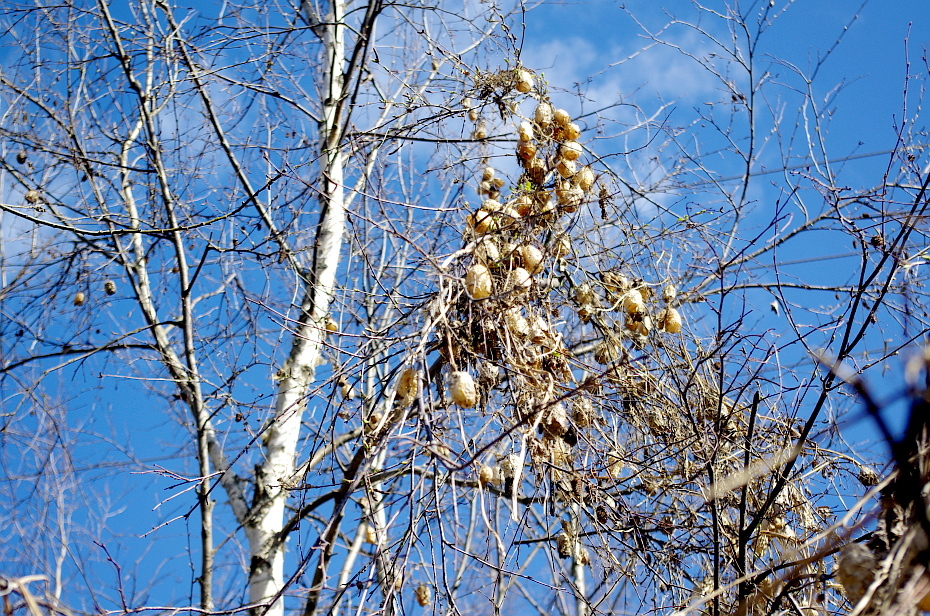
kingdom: Plantae
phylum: Tracheophyta
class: Magnoliopsida
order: Cucurbitales
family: Cucurbitaceae
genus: Echinocystis
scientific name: Echinocystis lobata
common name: Wild cucumber
